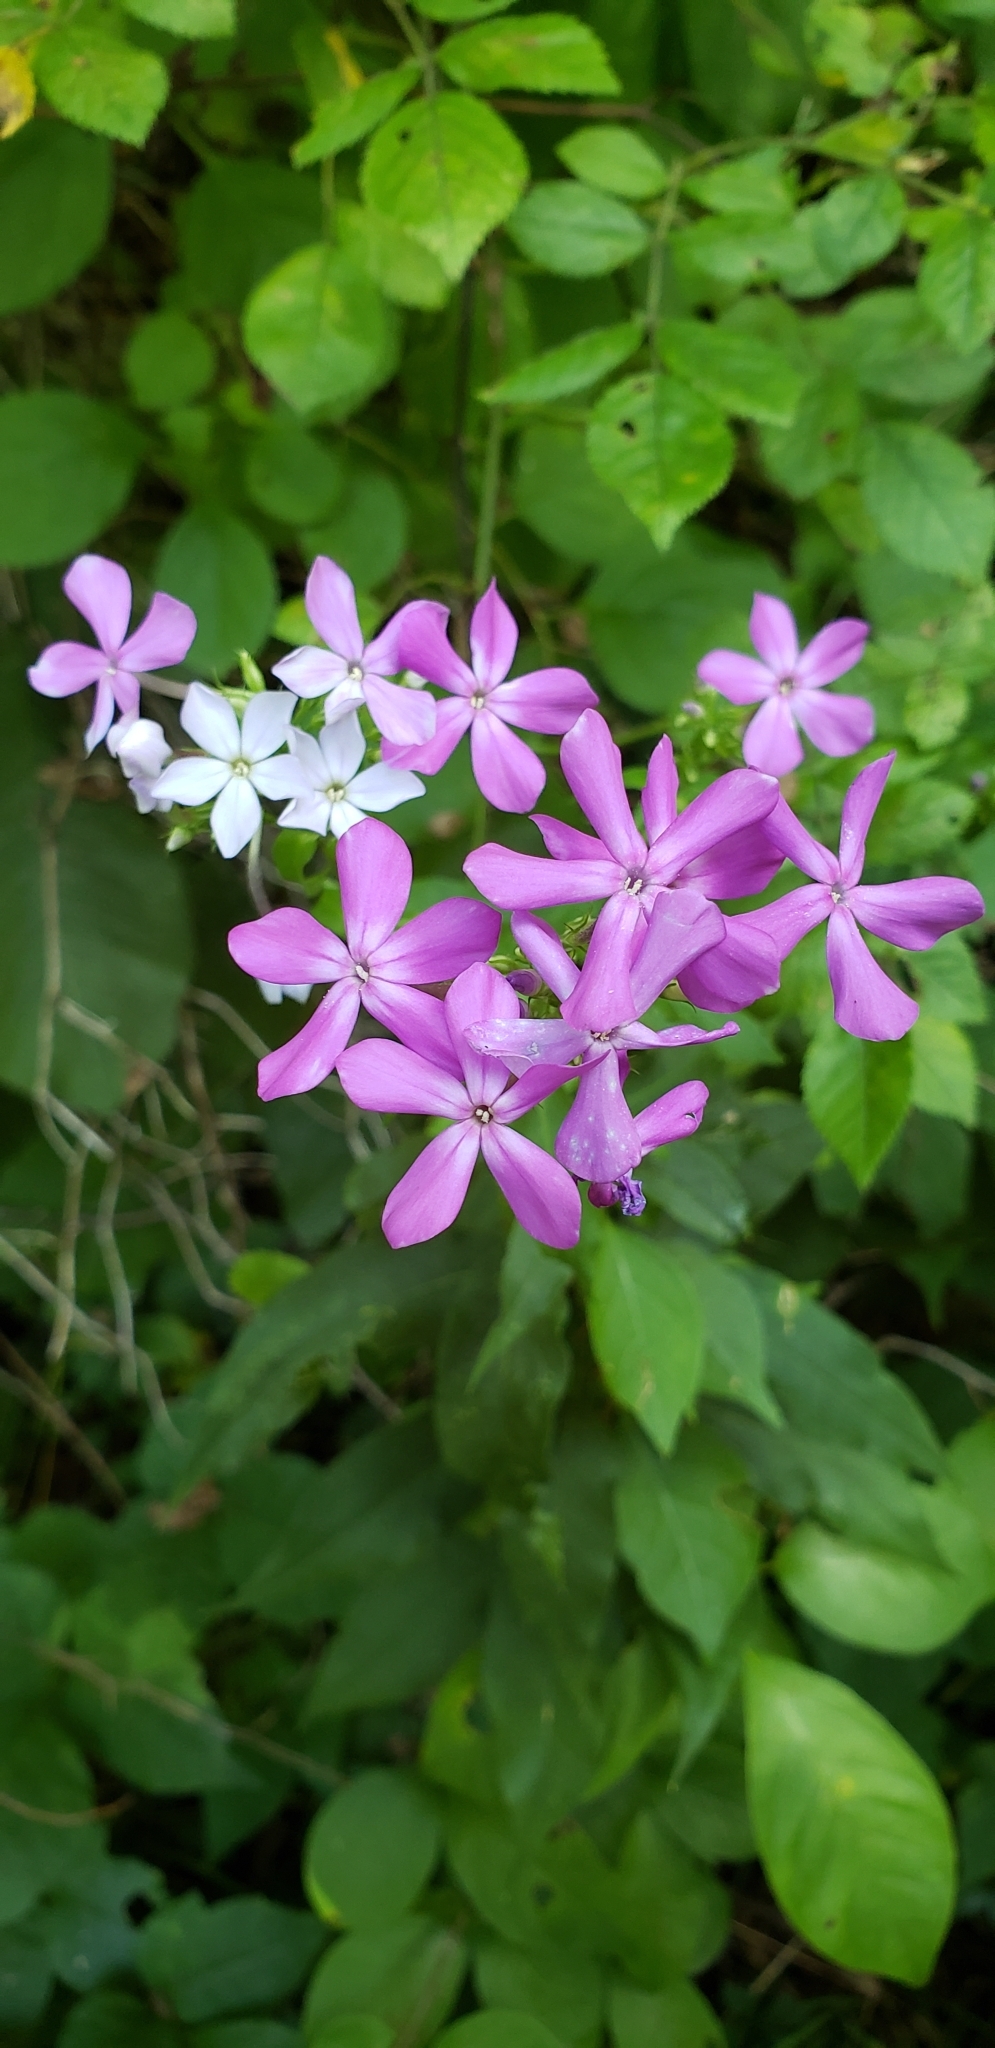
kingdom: Plantae
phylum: Tracheophyta
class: Magnoliopsida
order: Ericales
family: Polemoniaceae
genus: Phlox
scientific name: Phlox paniculata
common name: Fall phlox
